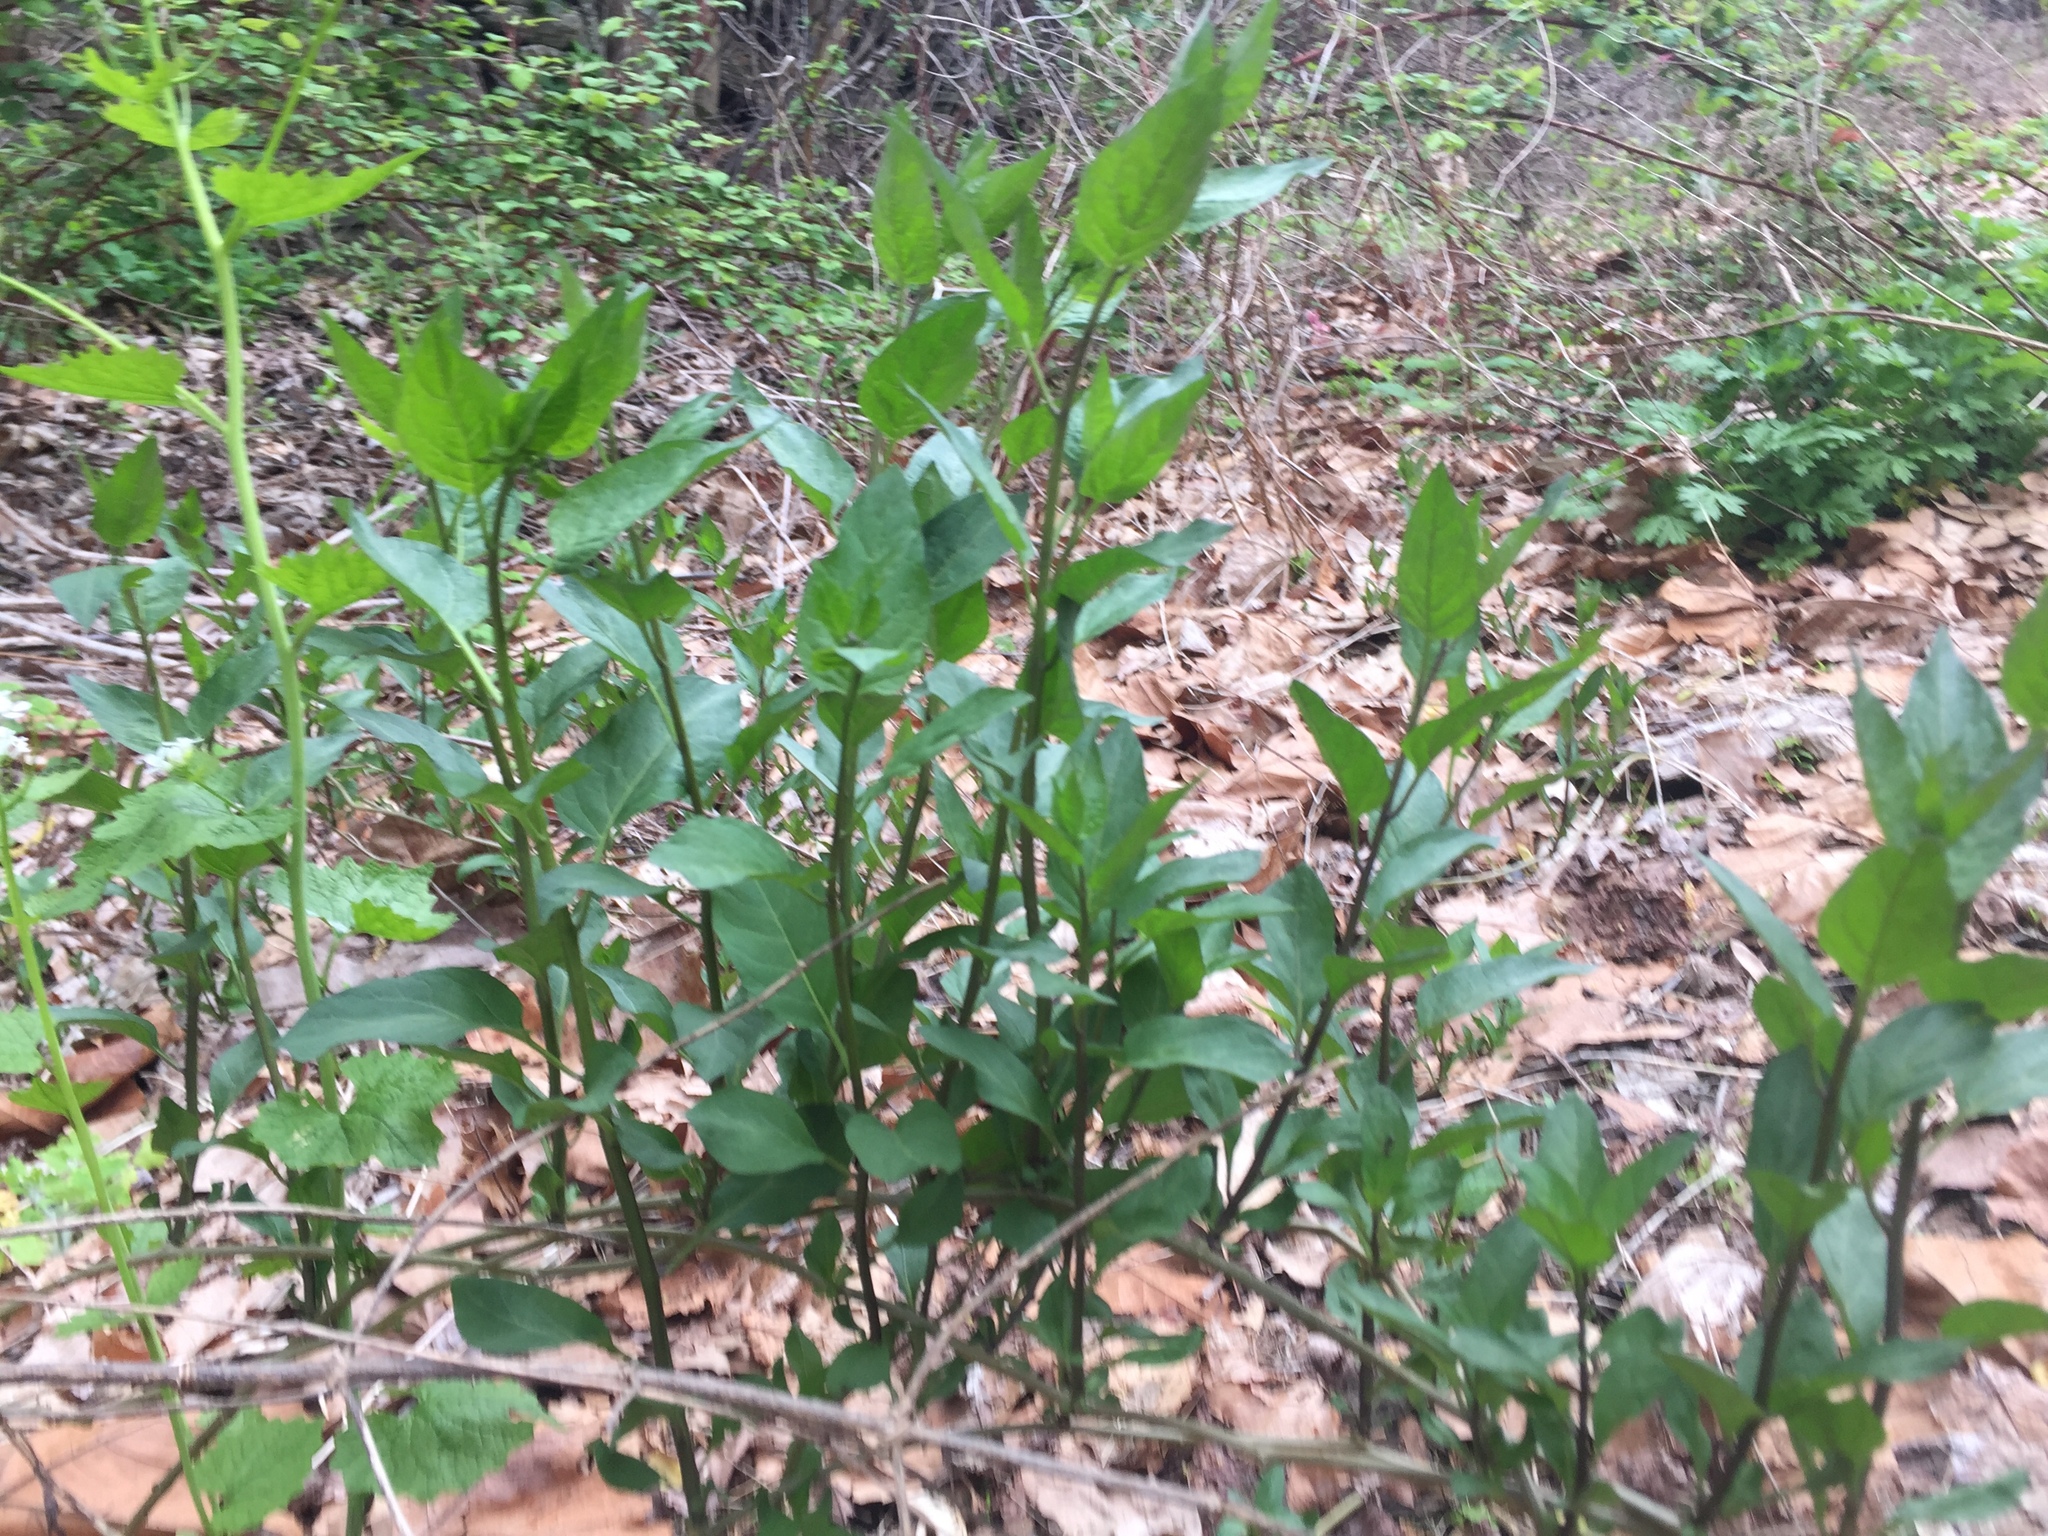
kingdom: Plantae
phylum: Tracheophyta
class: Magnoliopsida
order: Solanales
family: Solanaceae
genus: Solanum
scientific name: Solanum dulcamara
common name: Climbing nightshade
